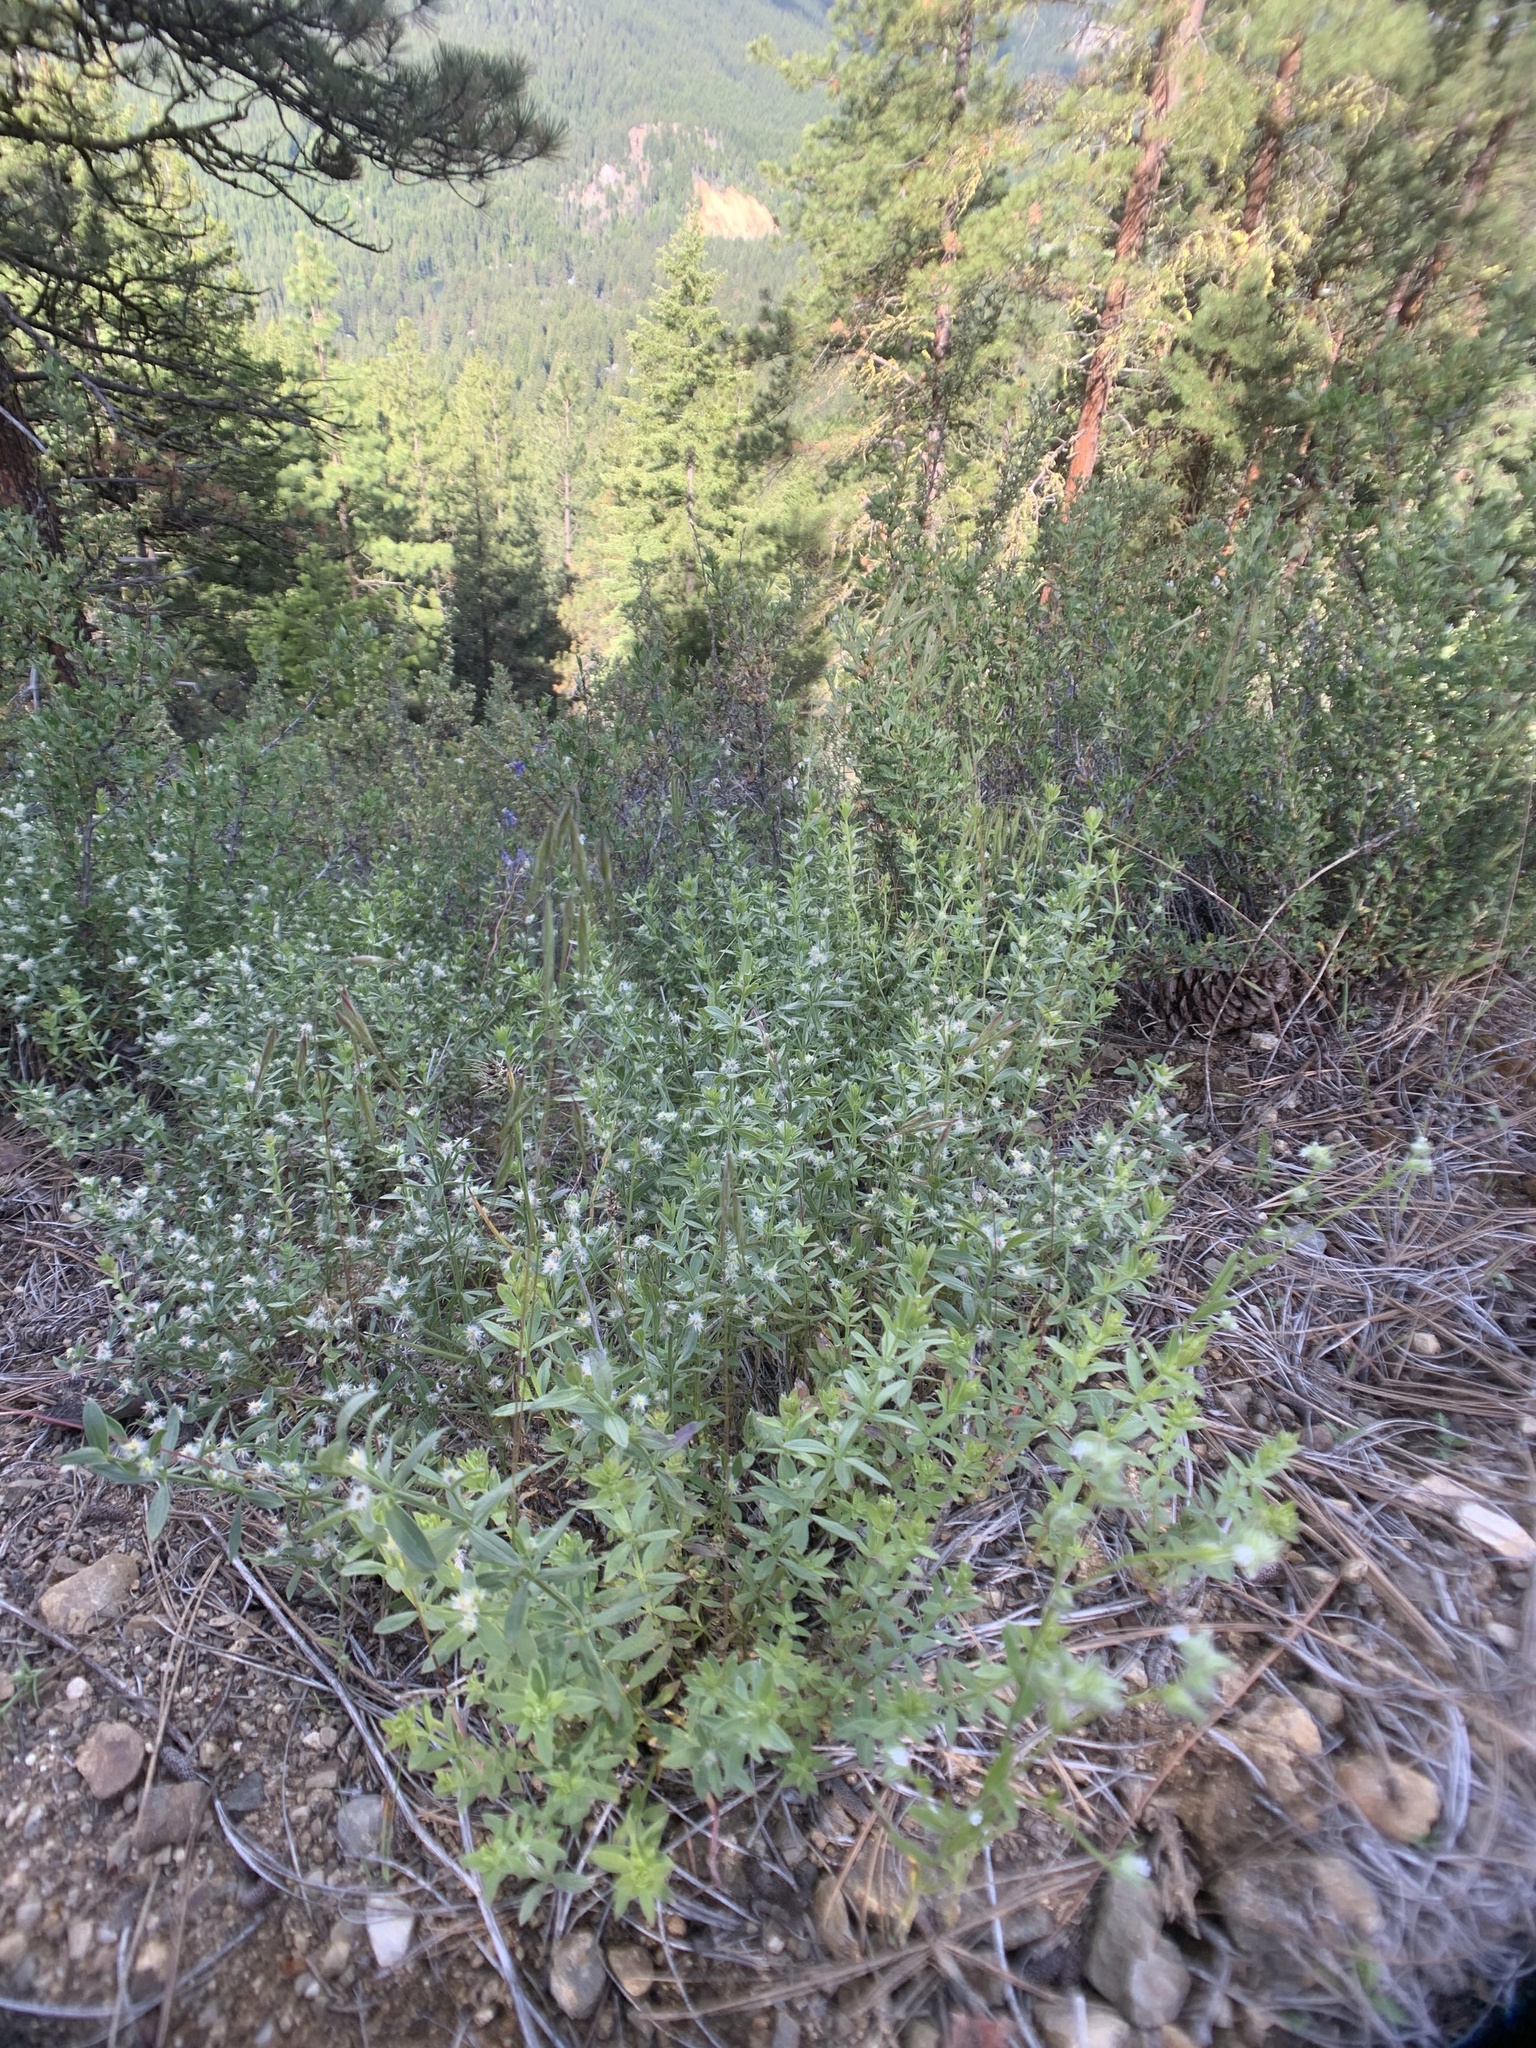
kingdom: Plantae
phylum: Tracheophyta
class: Magnoliopsida
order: Gentianales
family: Rubiaceae
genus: Galium
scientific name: Galium serpenticum
